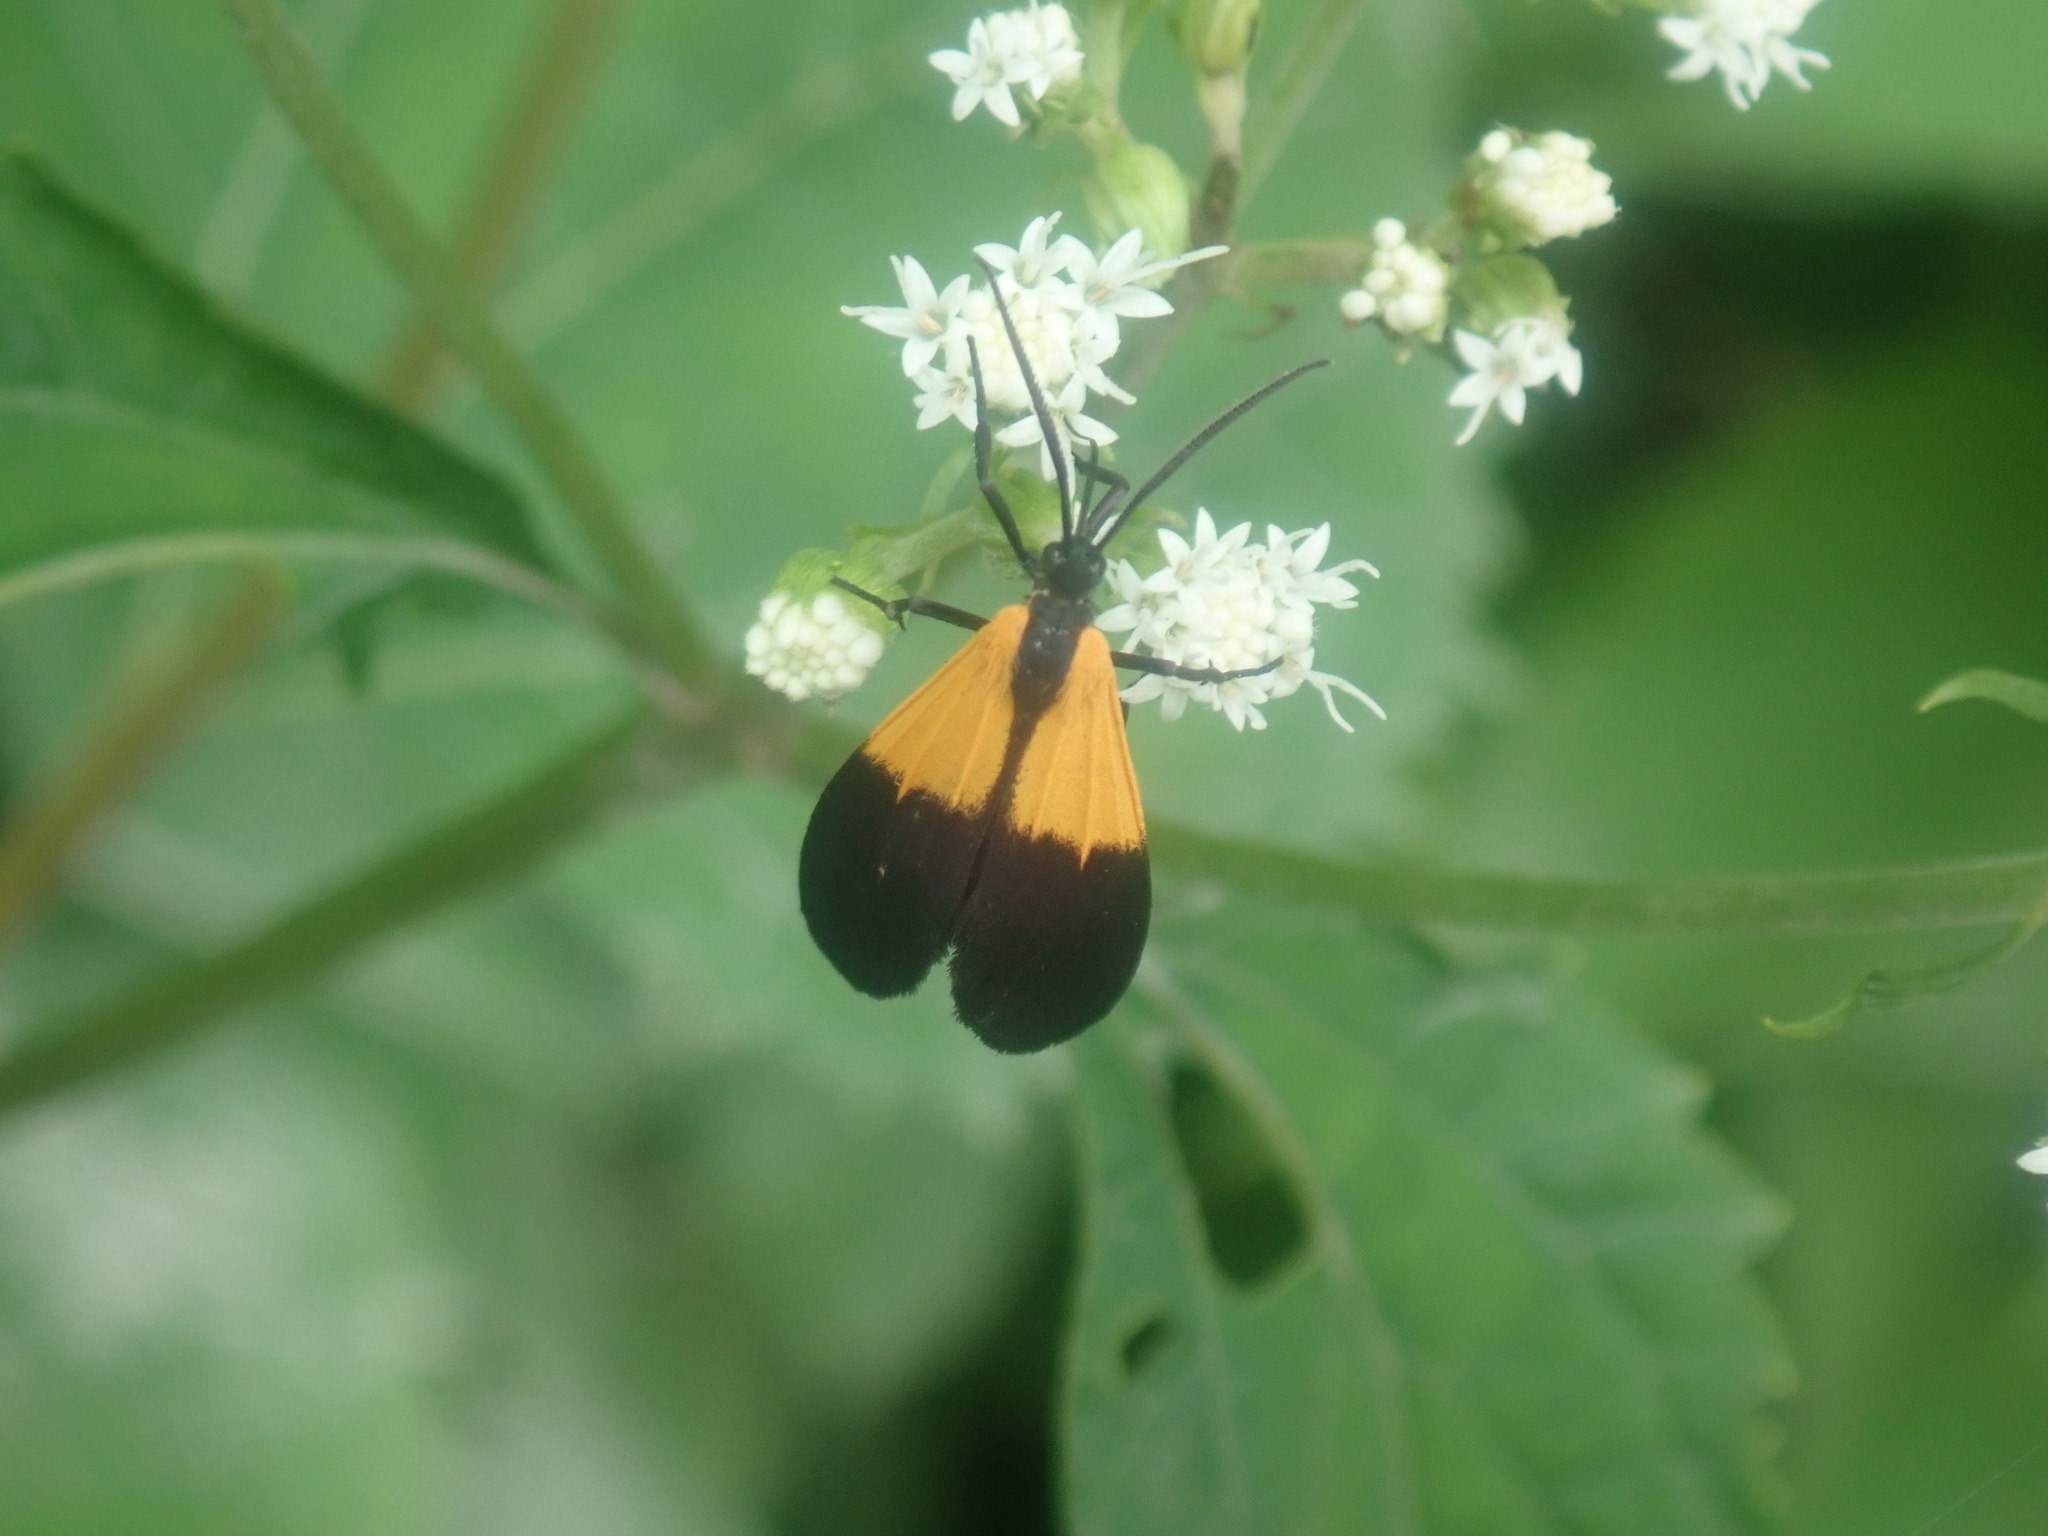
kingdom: Animalia
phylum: Arthropoda
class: Insecta
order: Lepidoptera
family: Erebidae
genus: Lycomorpha
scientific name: Lycomorpha pholus
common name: Black-and-yellow lichen moth
